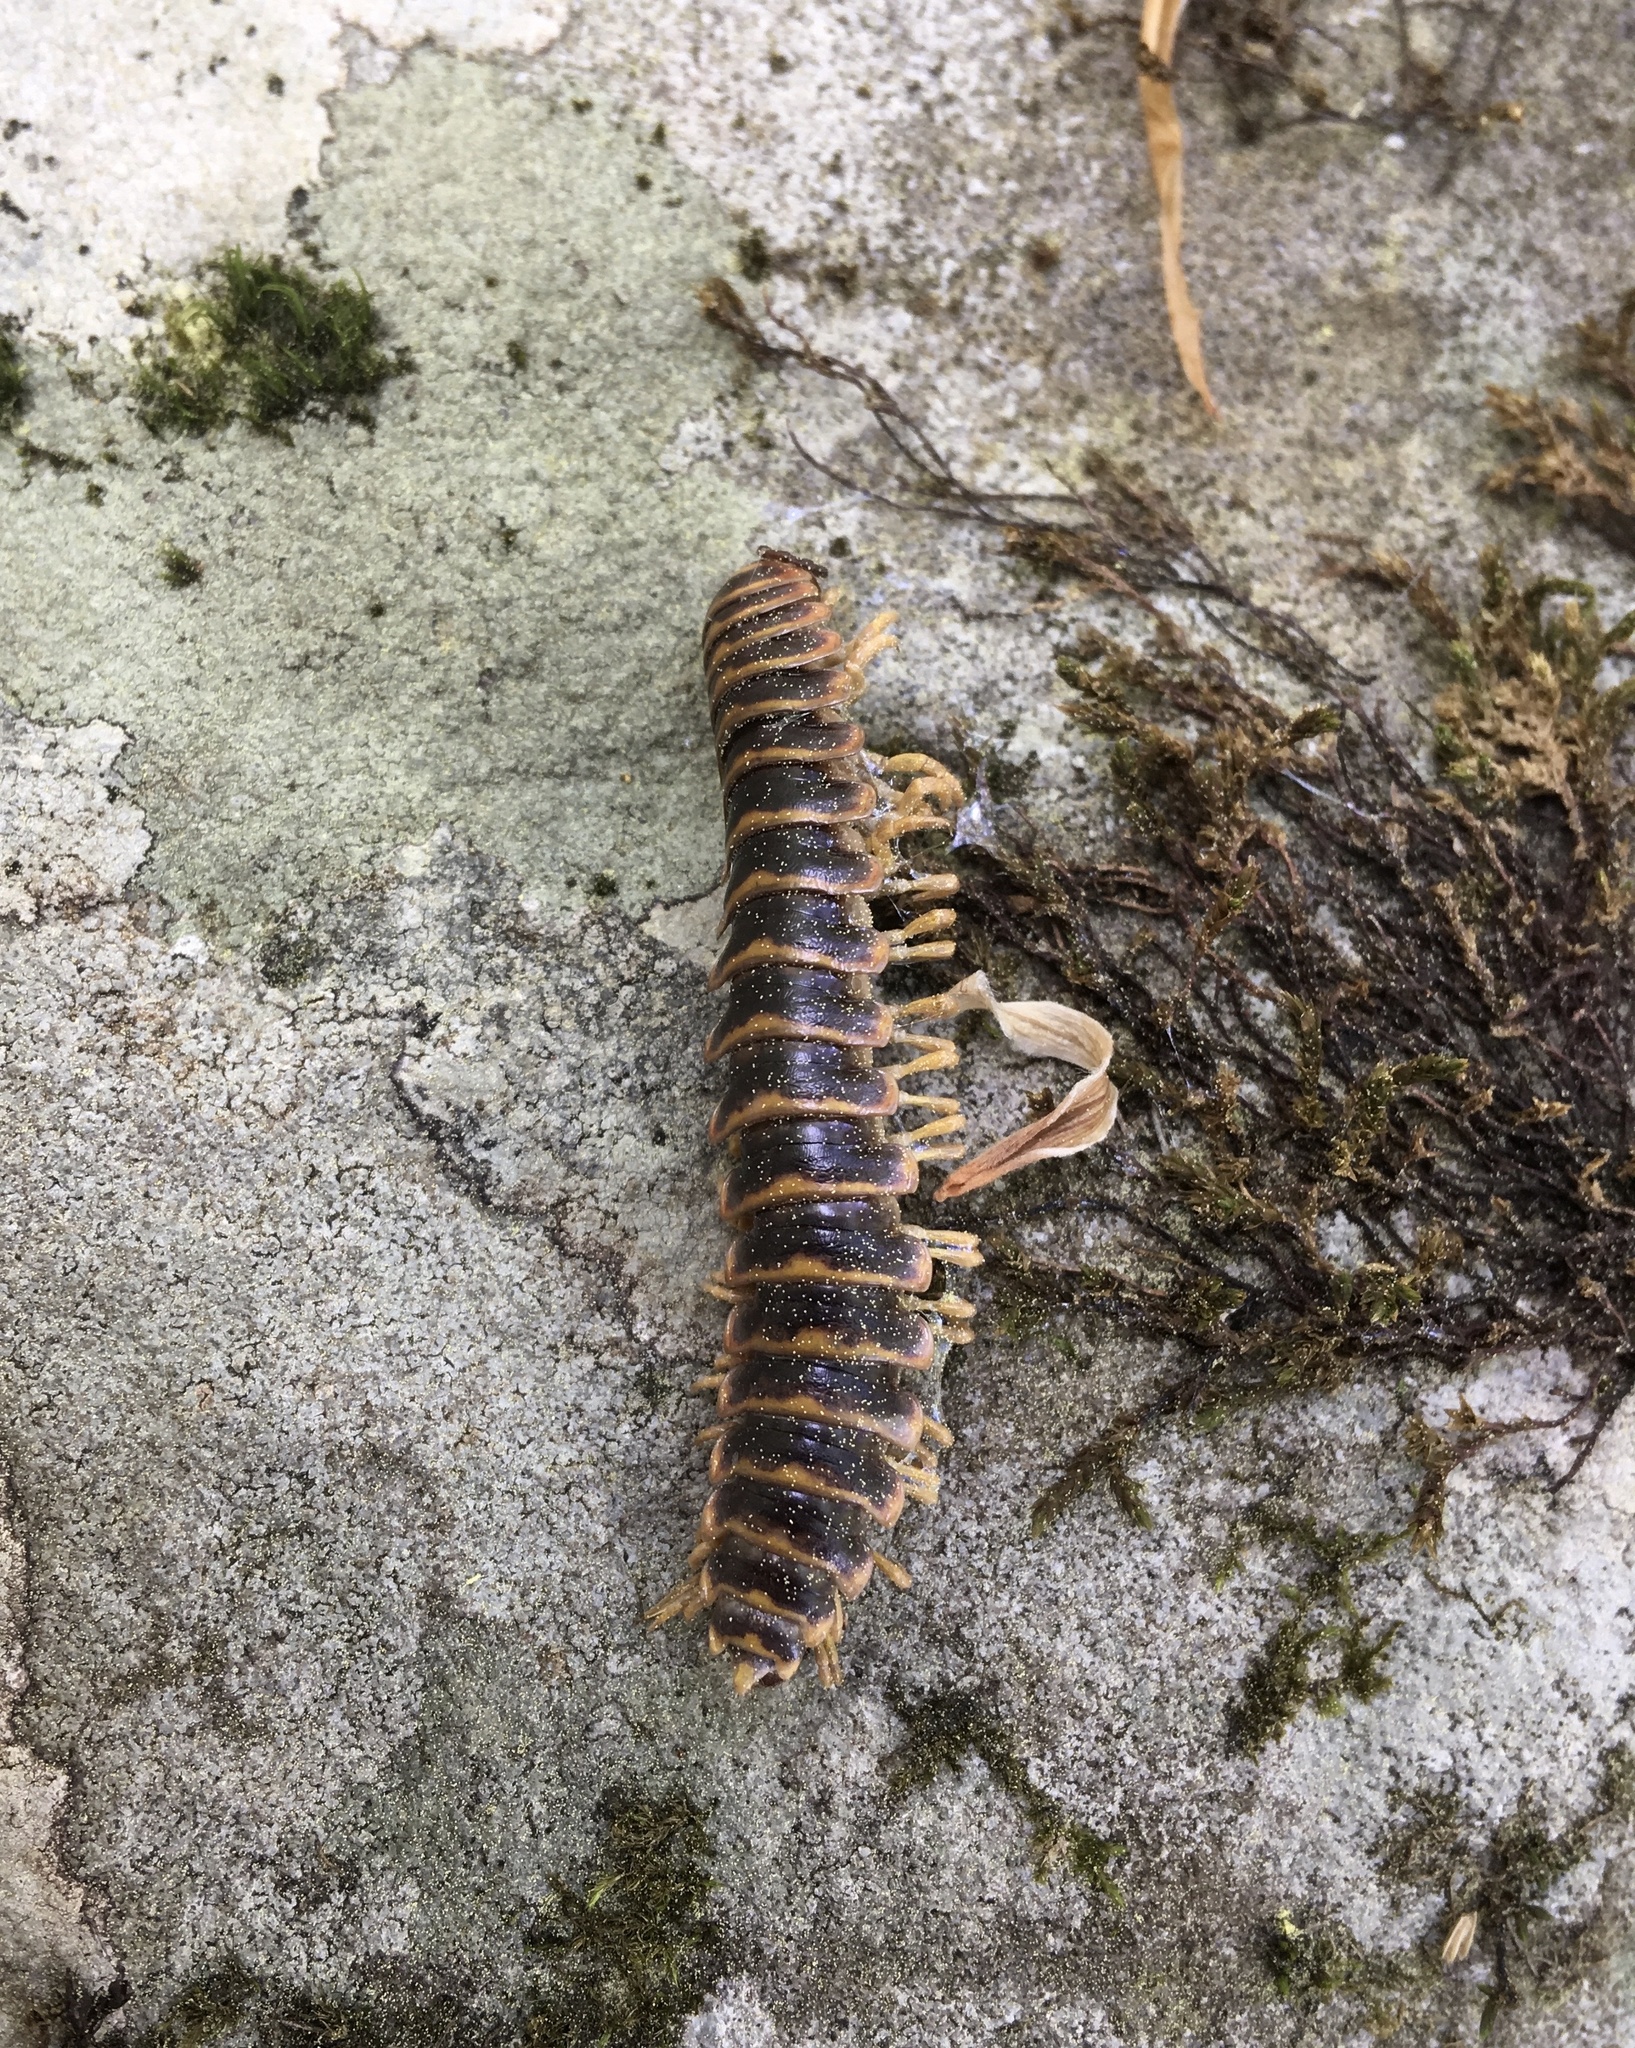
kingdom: Fungi
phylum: Entomophthoromycota
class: Entomophthoromycetes
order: Entomophthorales
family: Entomophthoraceae
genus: Arthrophaga
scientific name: Arthrophaga myriapodina
